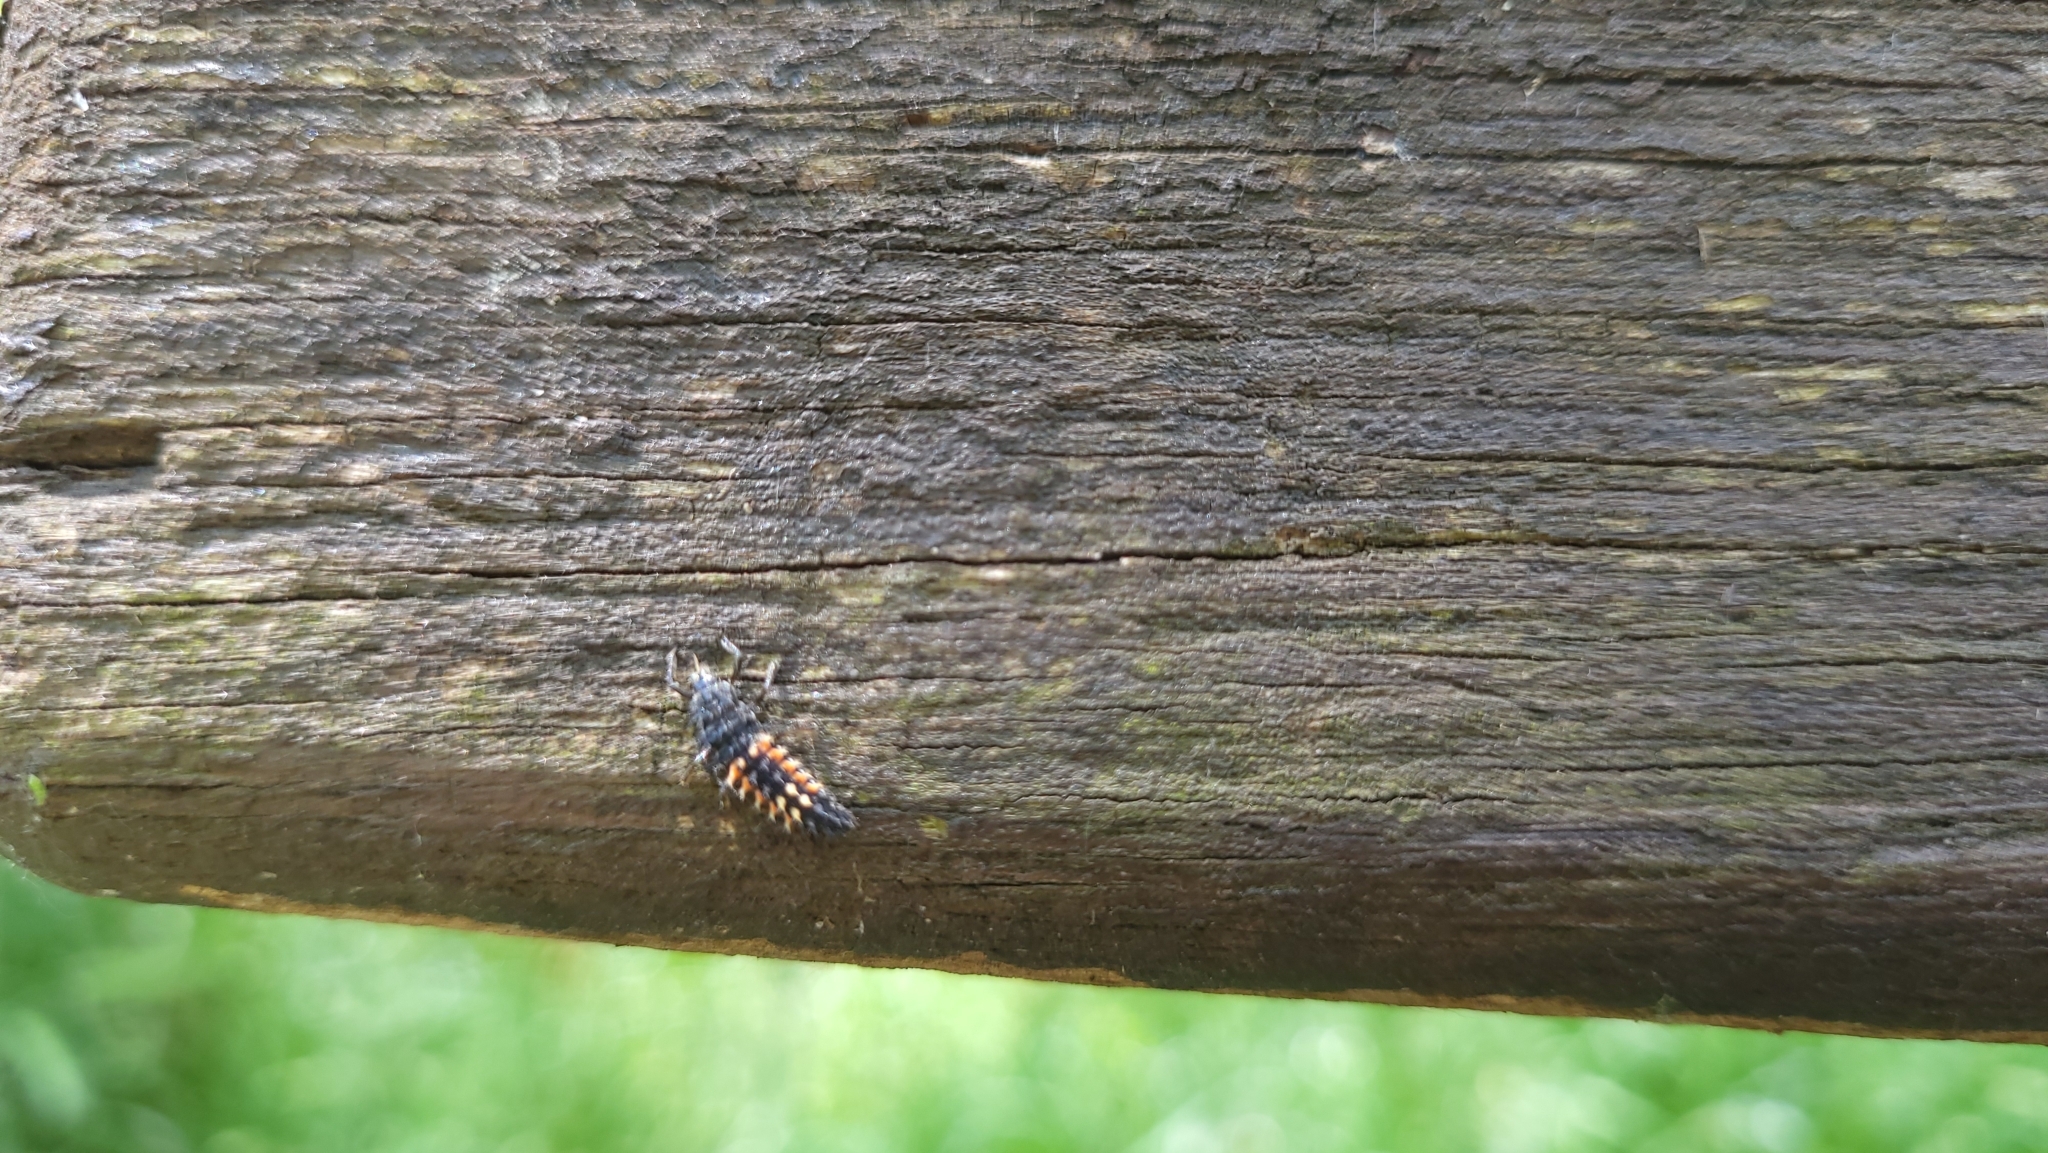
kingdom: Animalia
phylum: Arthropoda
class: Insecta
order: Coleoptera
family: Coccinellidae
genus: Harmonia
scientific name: Harmonia axyridis
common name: Harlequin ladybird
